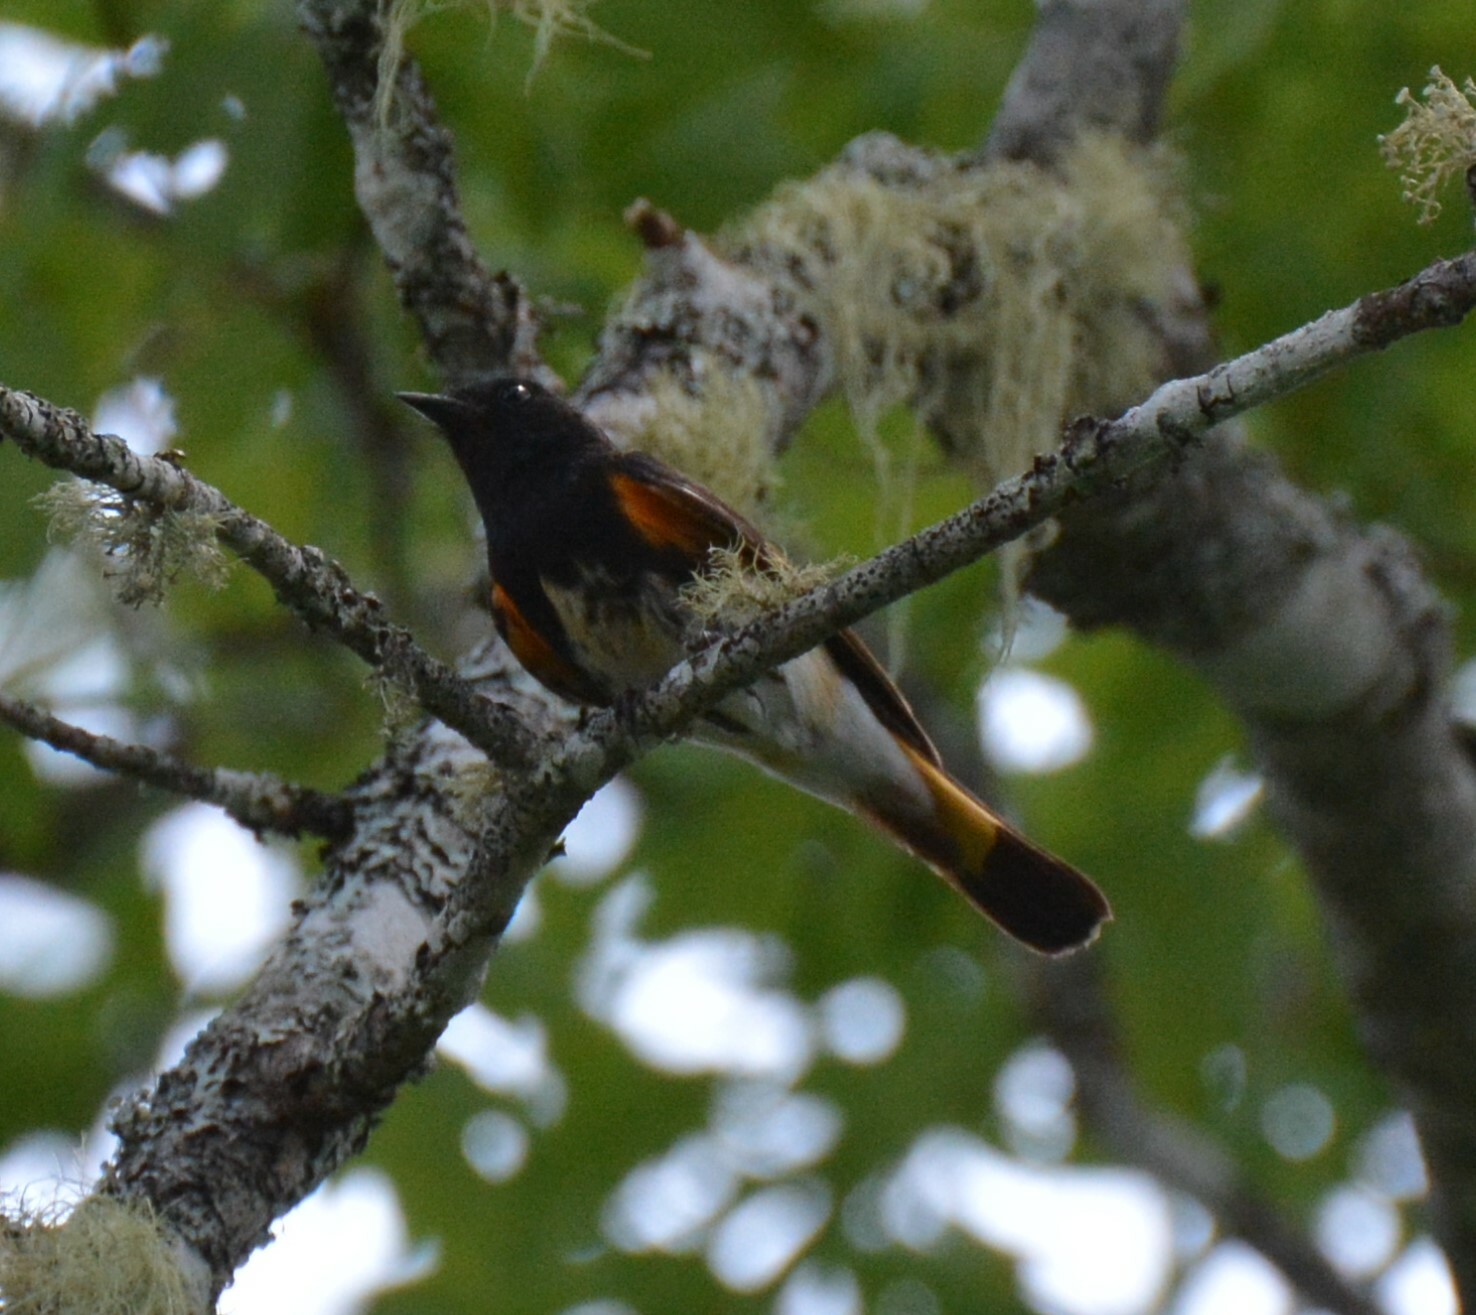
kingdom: Animalia
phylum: Chordata
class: Aves
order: Passeriformes
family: Parulidae
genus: Setophaga
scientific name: Setophaga ruticilla
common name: American redstart
